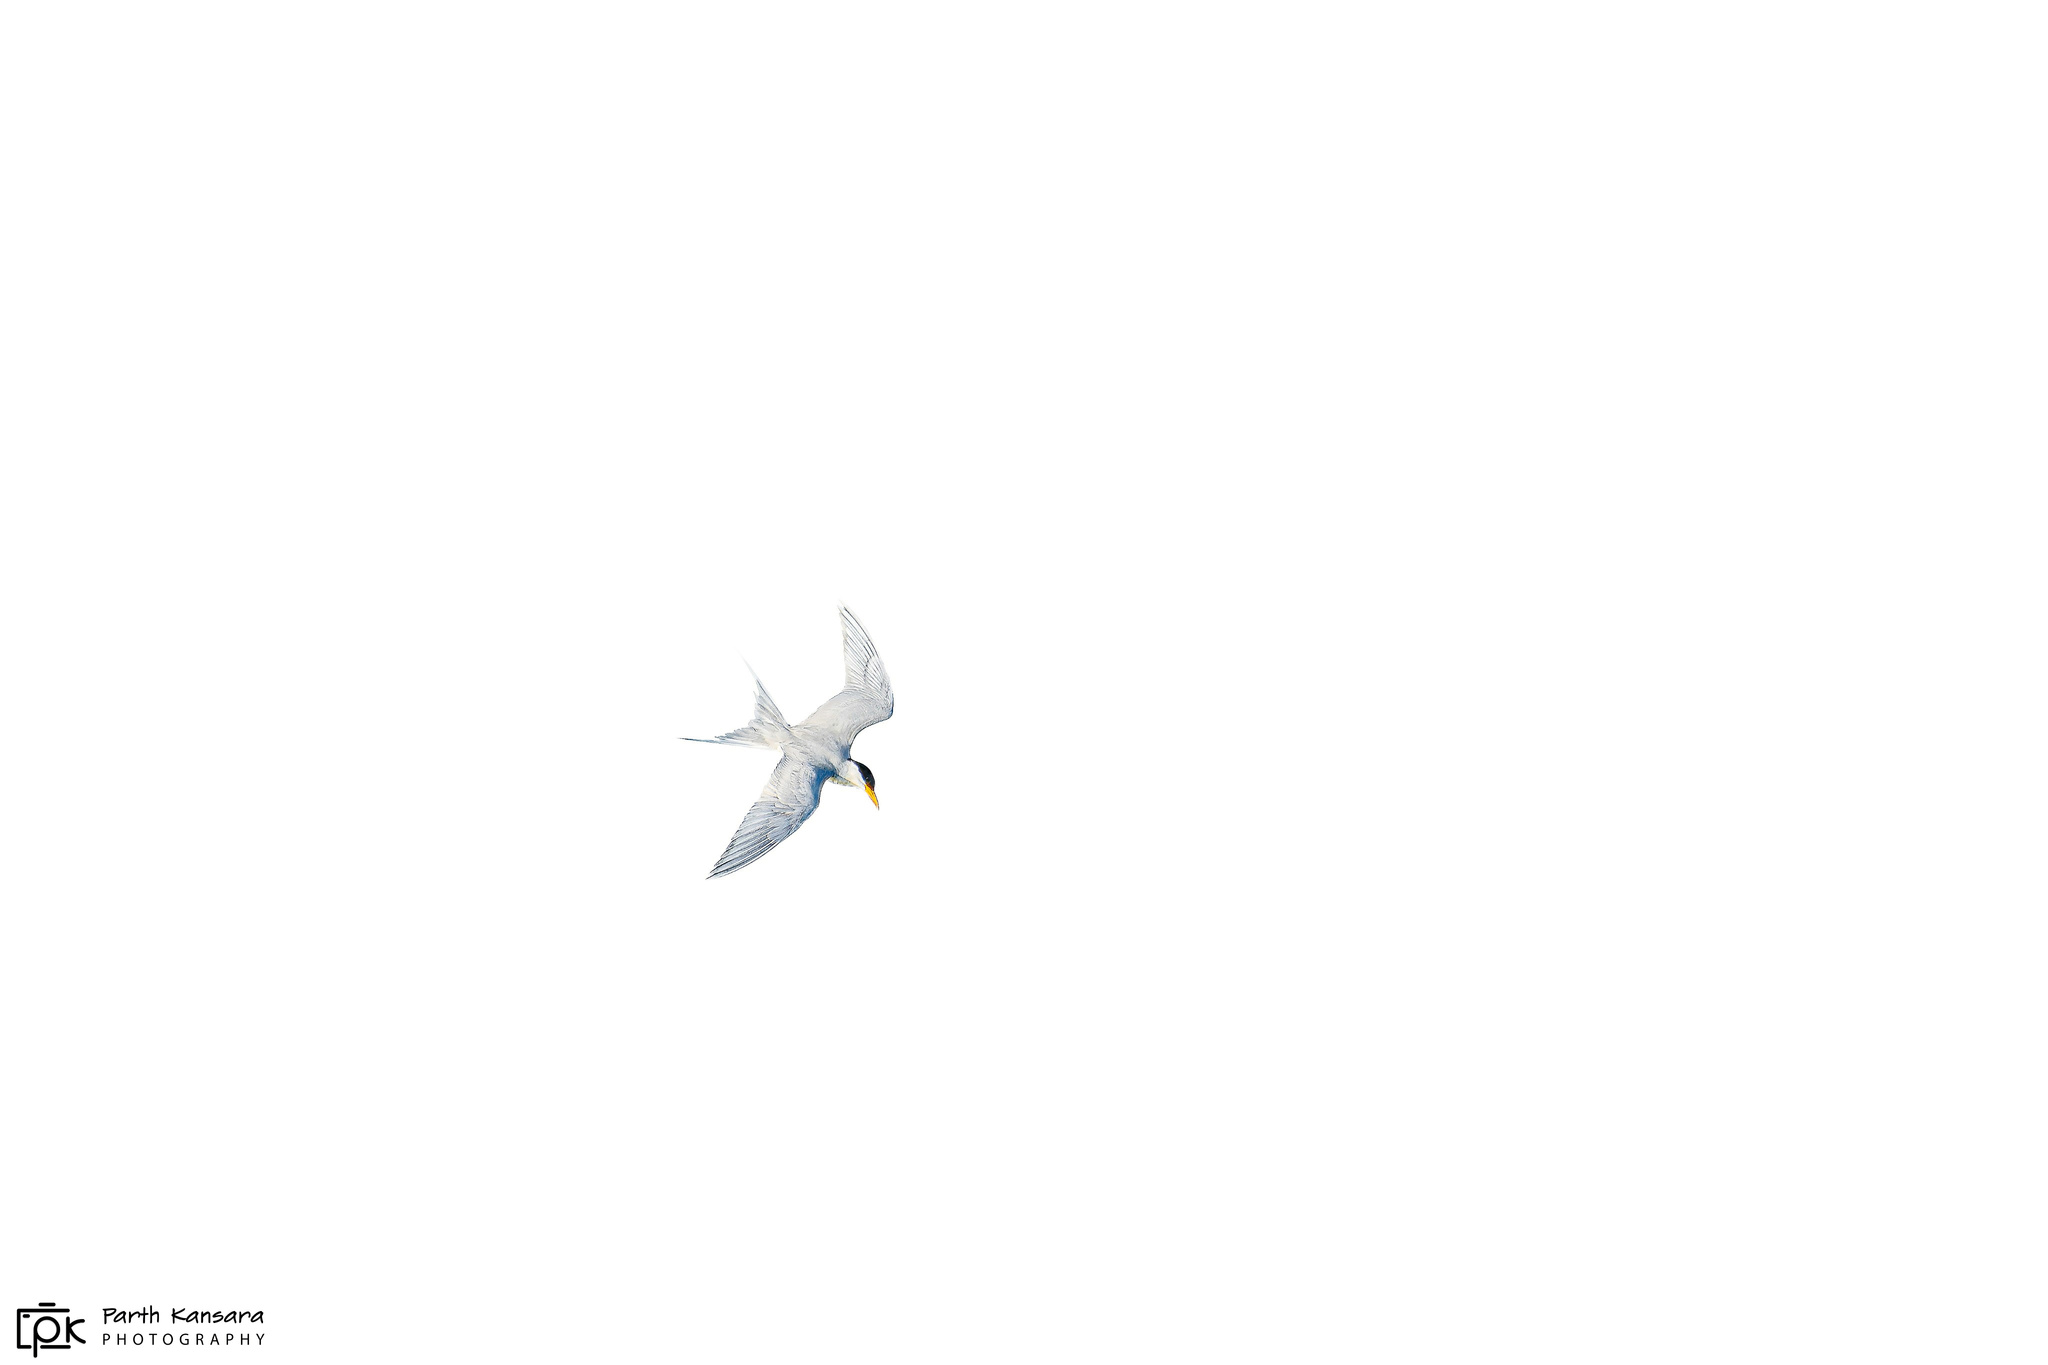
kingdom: Animalia
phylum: Chordata
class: Aves
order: Charadriiformes
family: Laridae
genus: Sterna
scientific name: Sterna aurantia
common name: River tern
